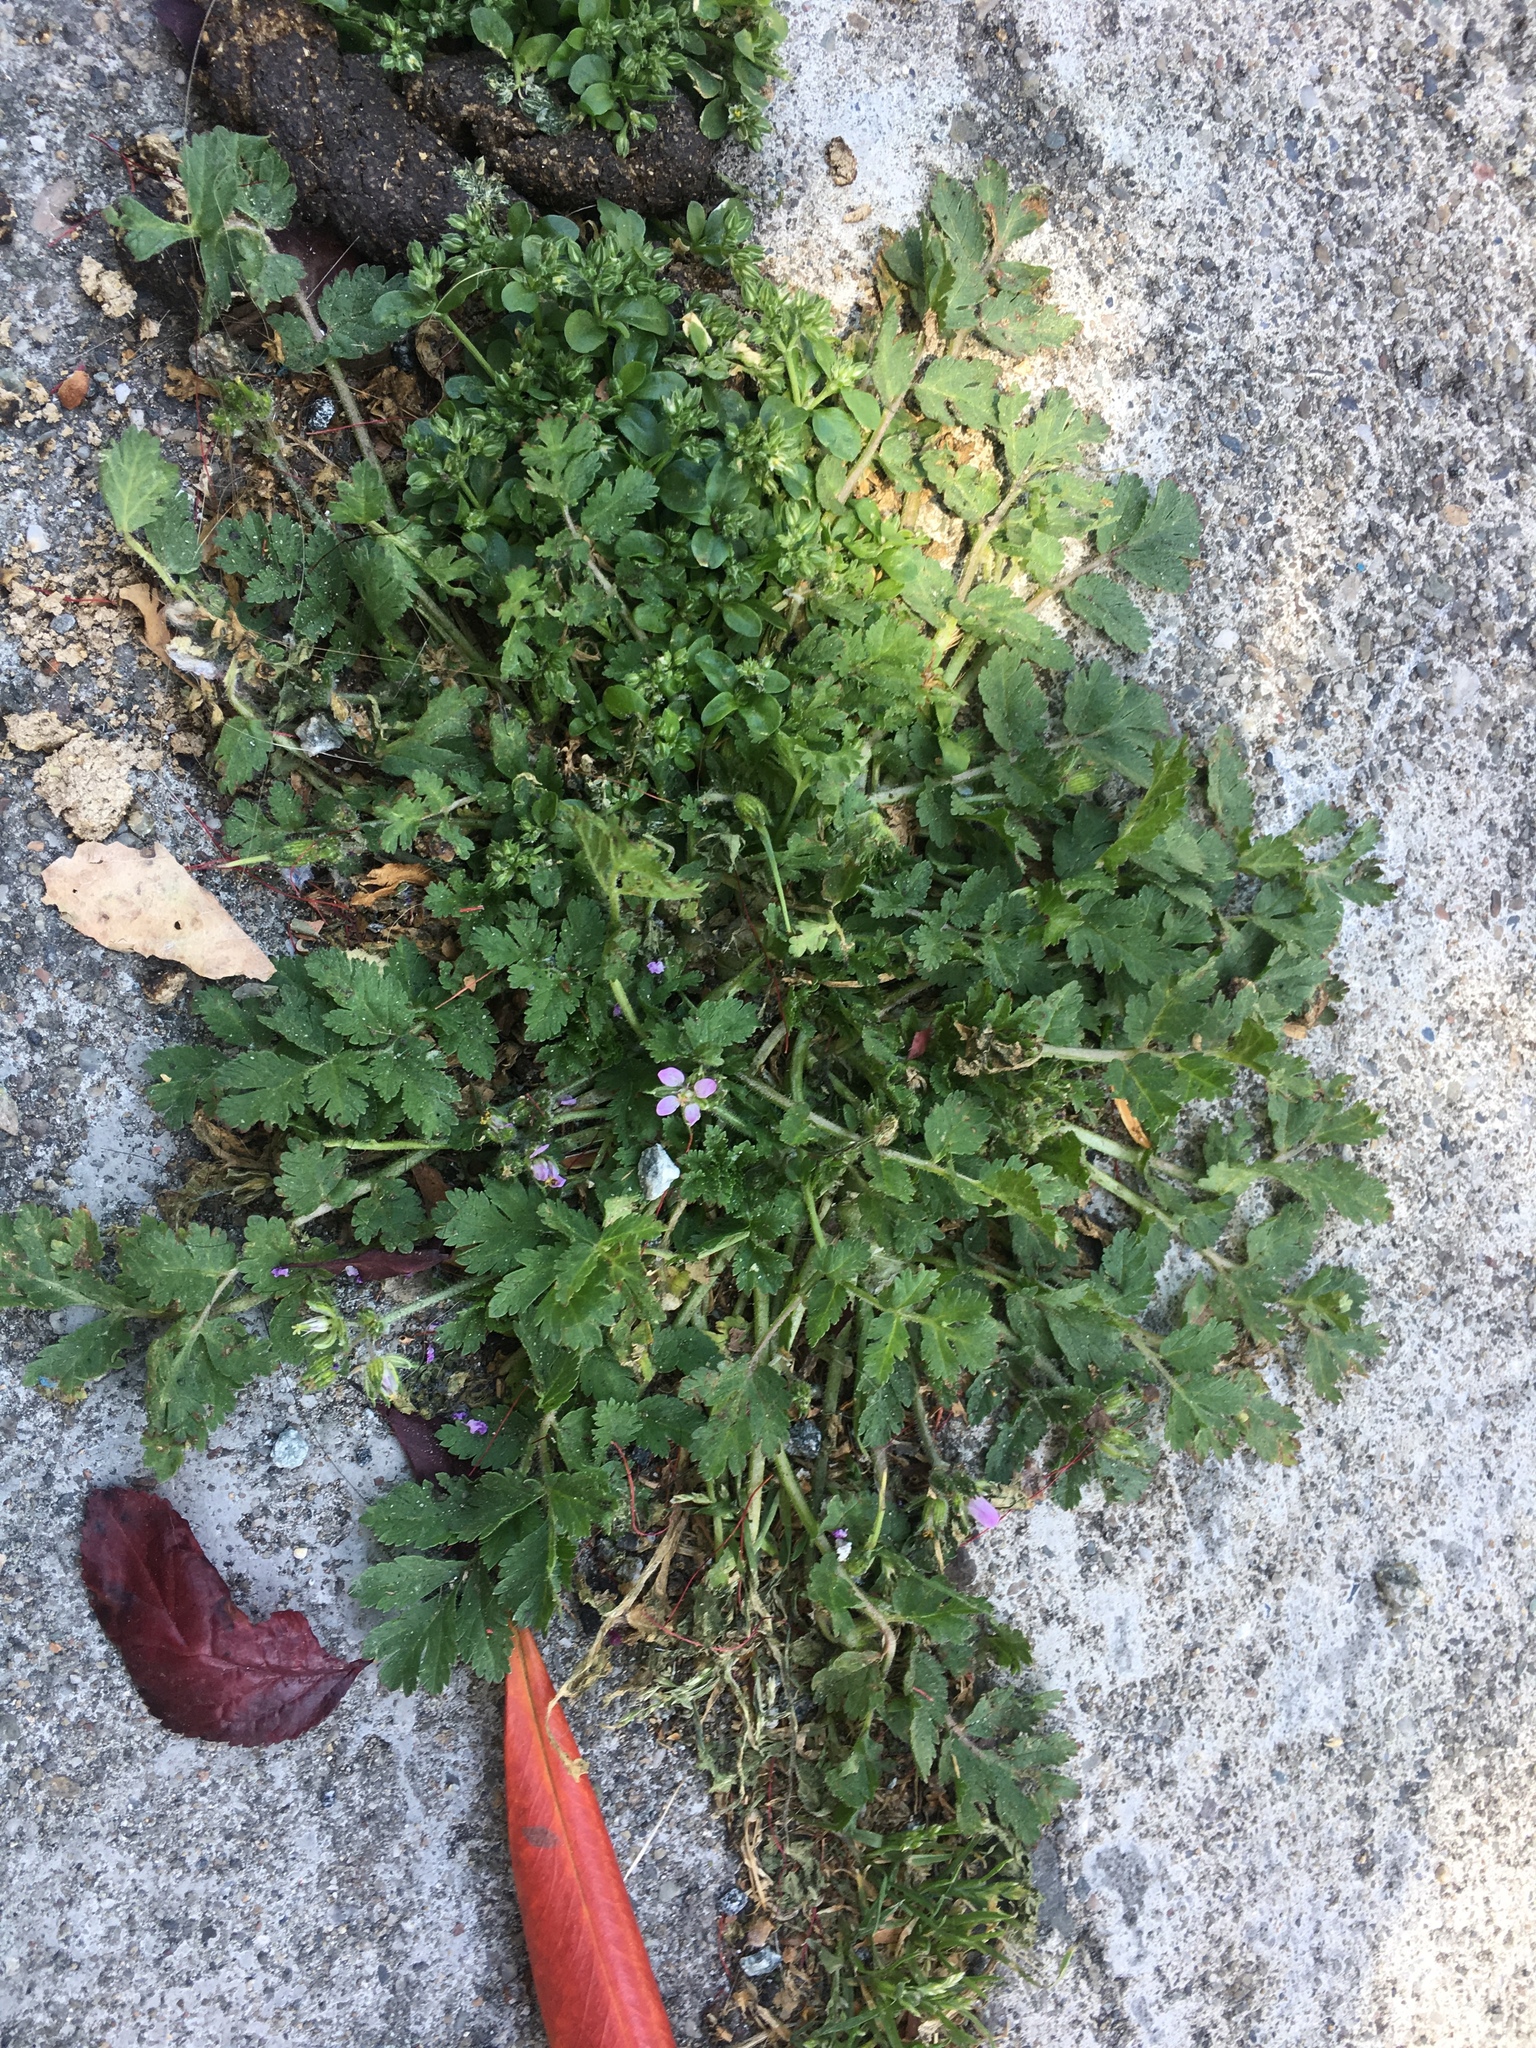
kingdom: Plantae
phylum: Tracheophyta
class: Magnoliopsida
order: Geraniales
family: Geraniaceae
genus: Erodium
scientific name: Erodium moschatum
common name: Musk stork's-bill
